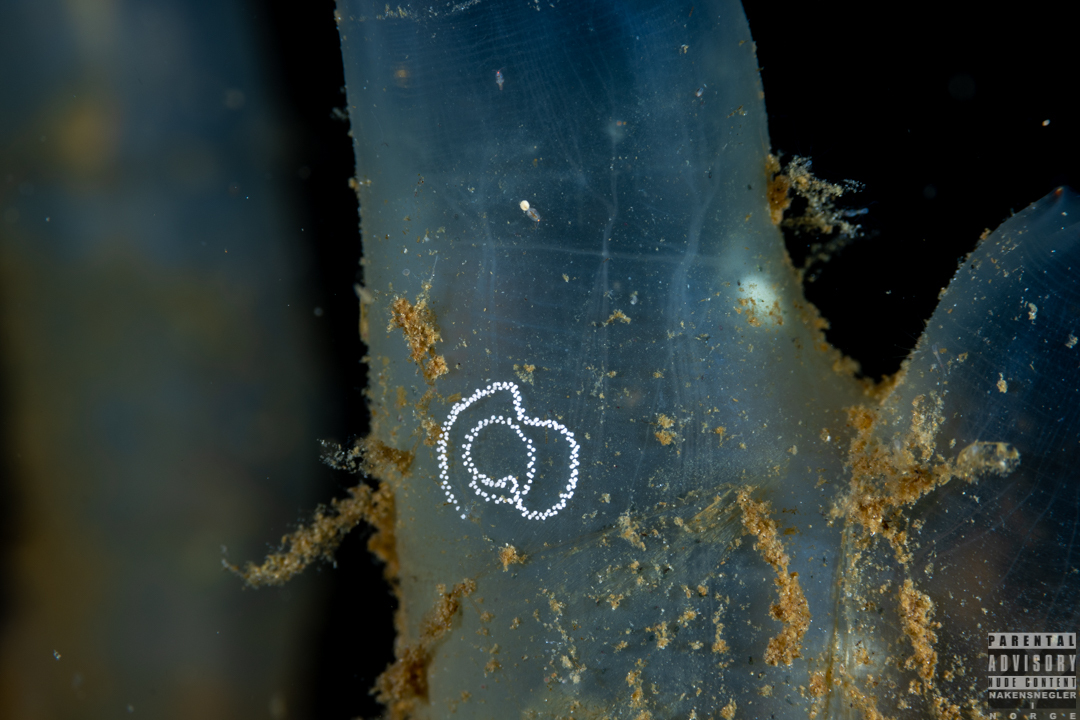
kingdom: Animalia
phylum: Mollusca
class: Gastropoda
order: Nudibranchia
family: Cuthonidae
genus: Bohuslania
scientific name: Bohuslania matsmichaeli
